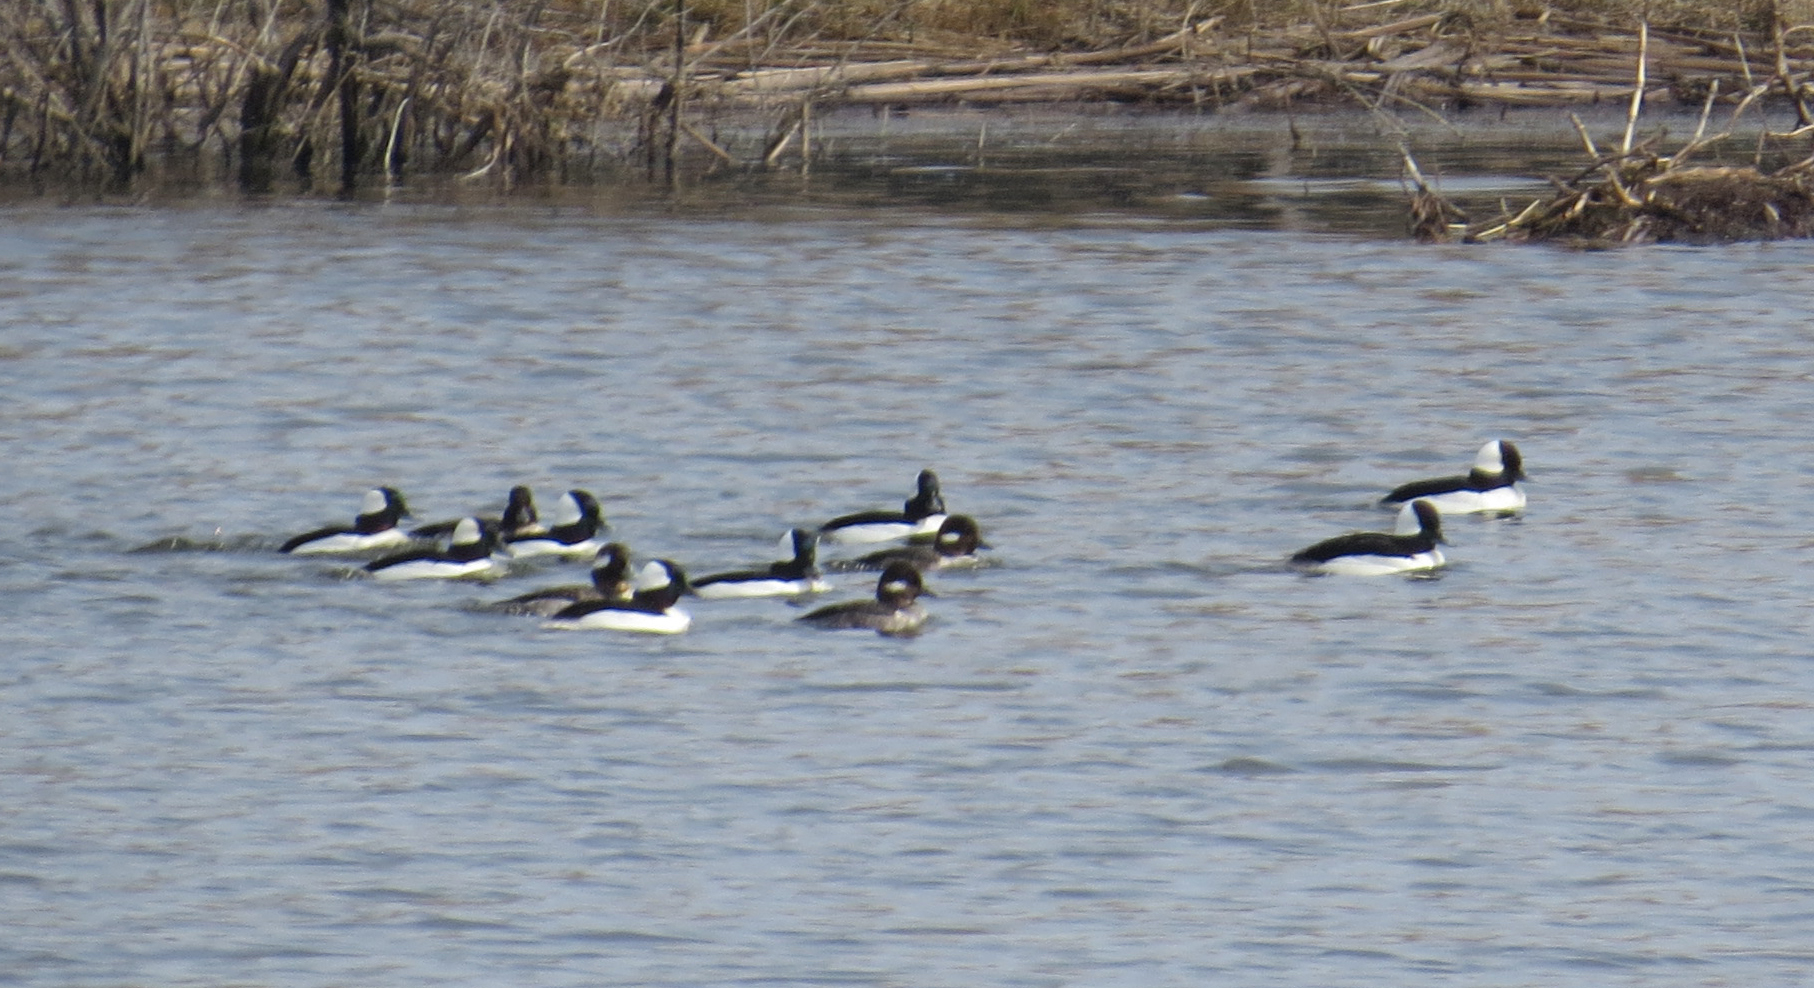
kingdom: Animalia
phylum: Chordata
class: Aves
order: Anseriformes
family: Anatidae
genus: Bucephala
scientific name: Bucephala albeola
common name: Bufflehead
